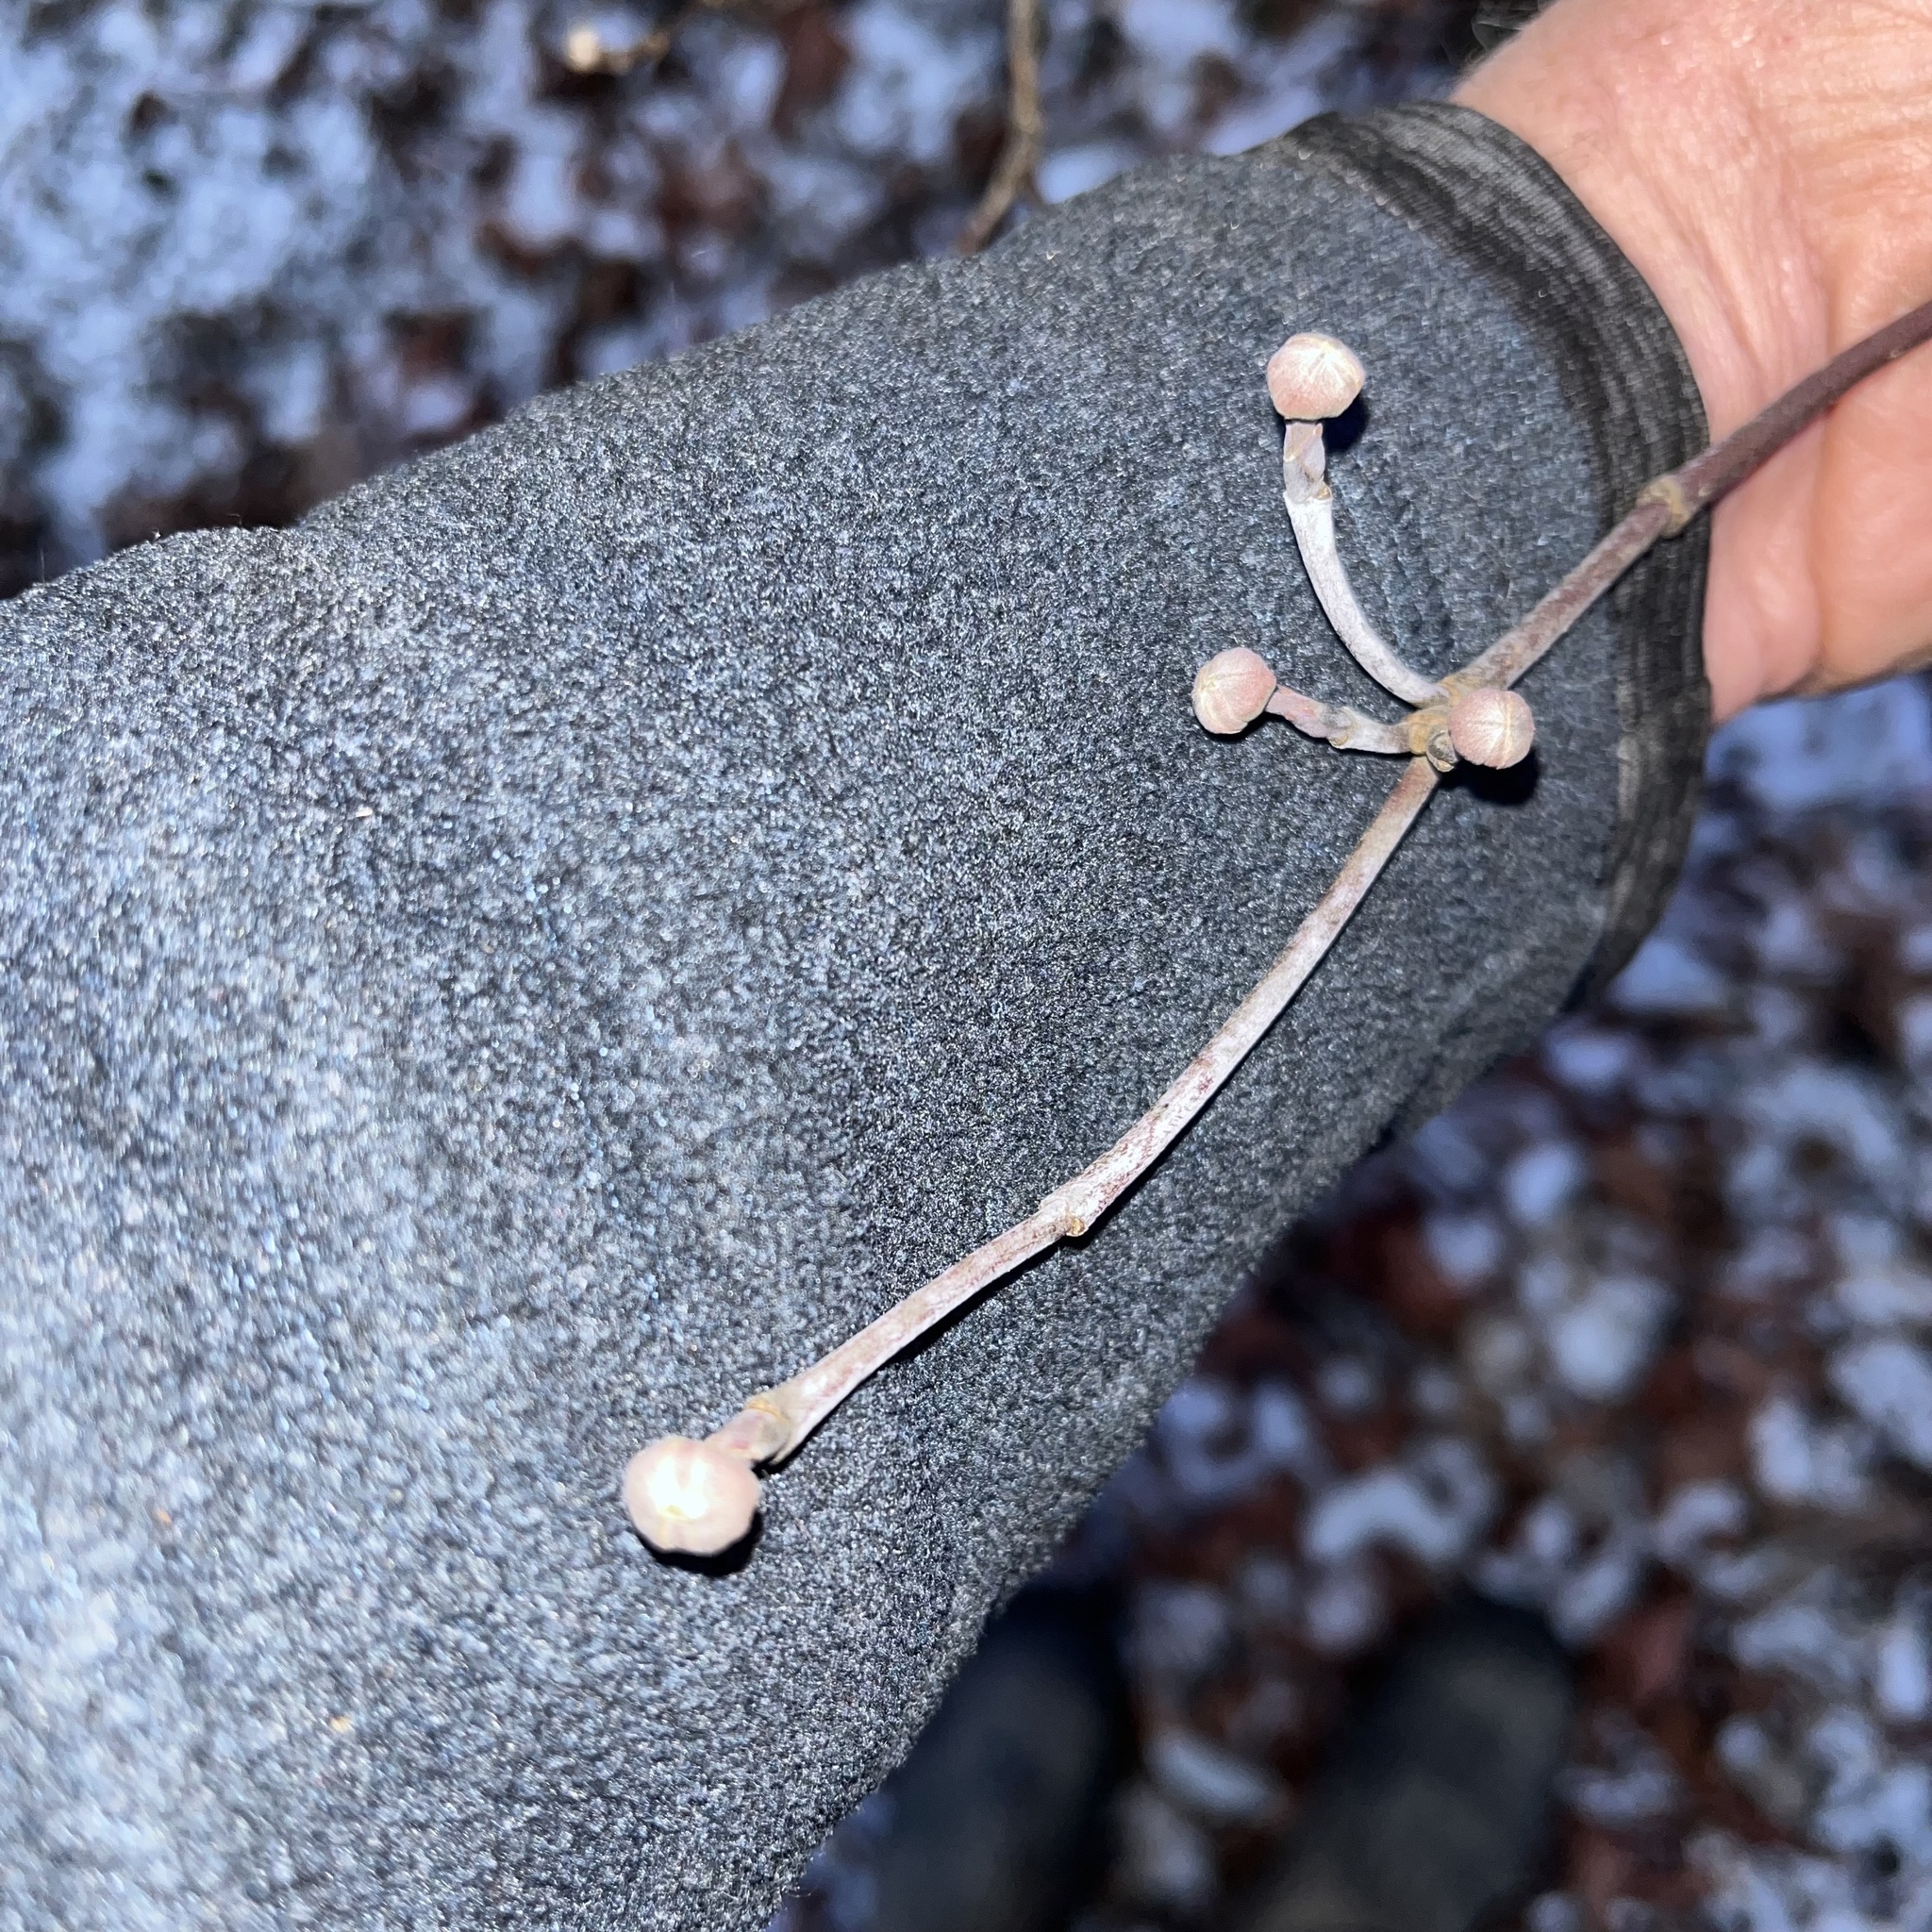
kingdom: Plantae
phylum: Tracheophyta
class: Magnoliopsida
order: Cornales
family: Cornaceae
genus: Cornus
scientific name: Cornus florida
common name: Flowering dogwood
